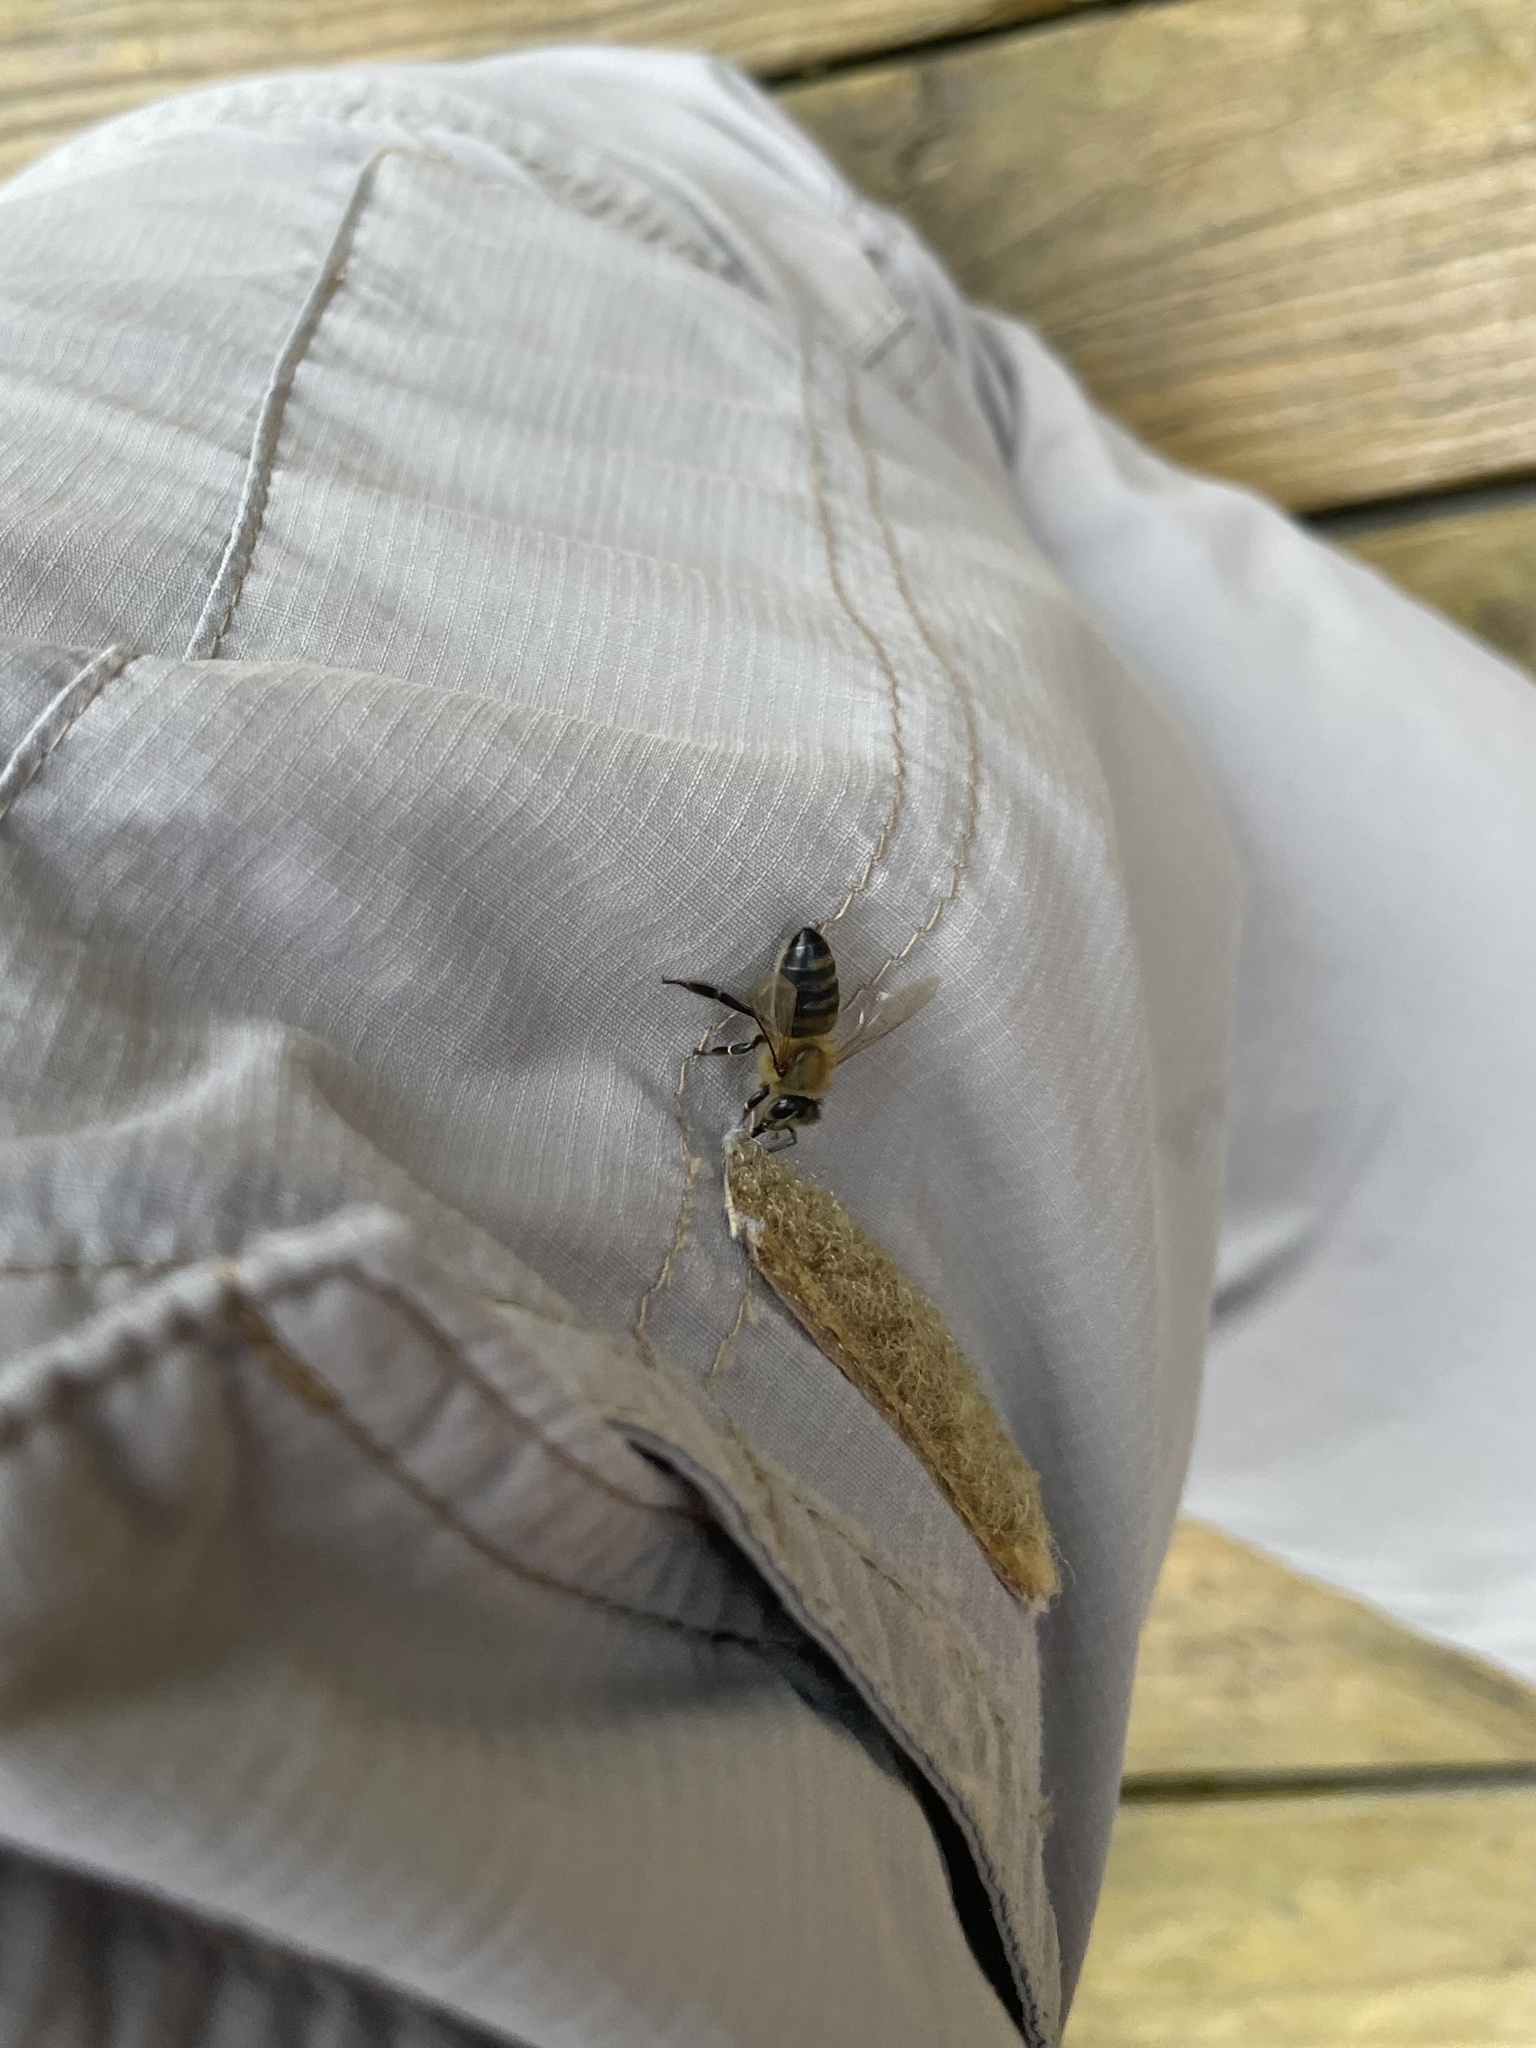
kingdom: Animalia
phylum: Arthropoda
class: Insecta
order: Hymenoptera
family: Apidae
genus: Apis
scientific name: Apis mellifera
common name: Honey bee
